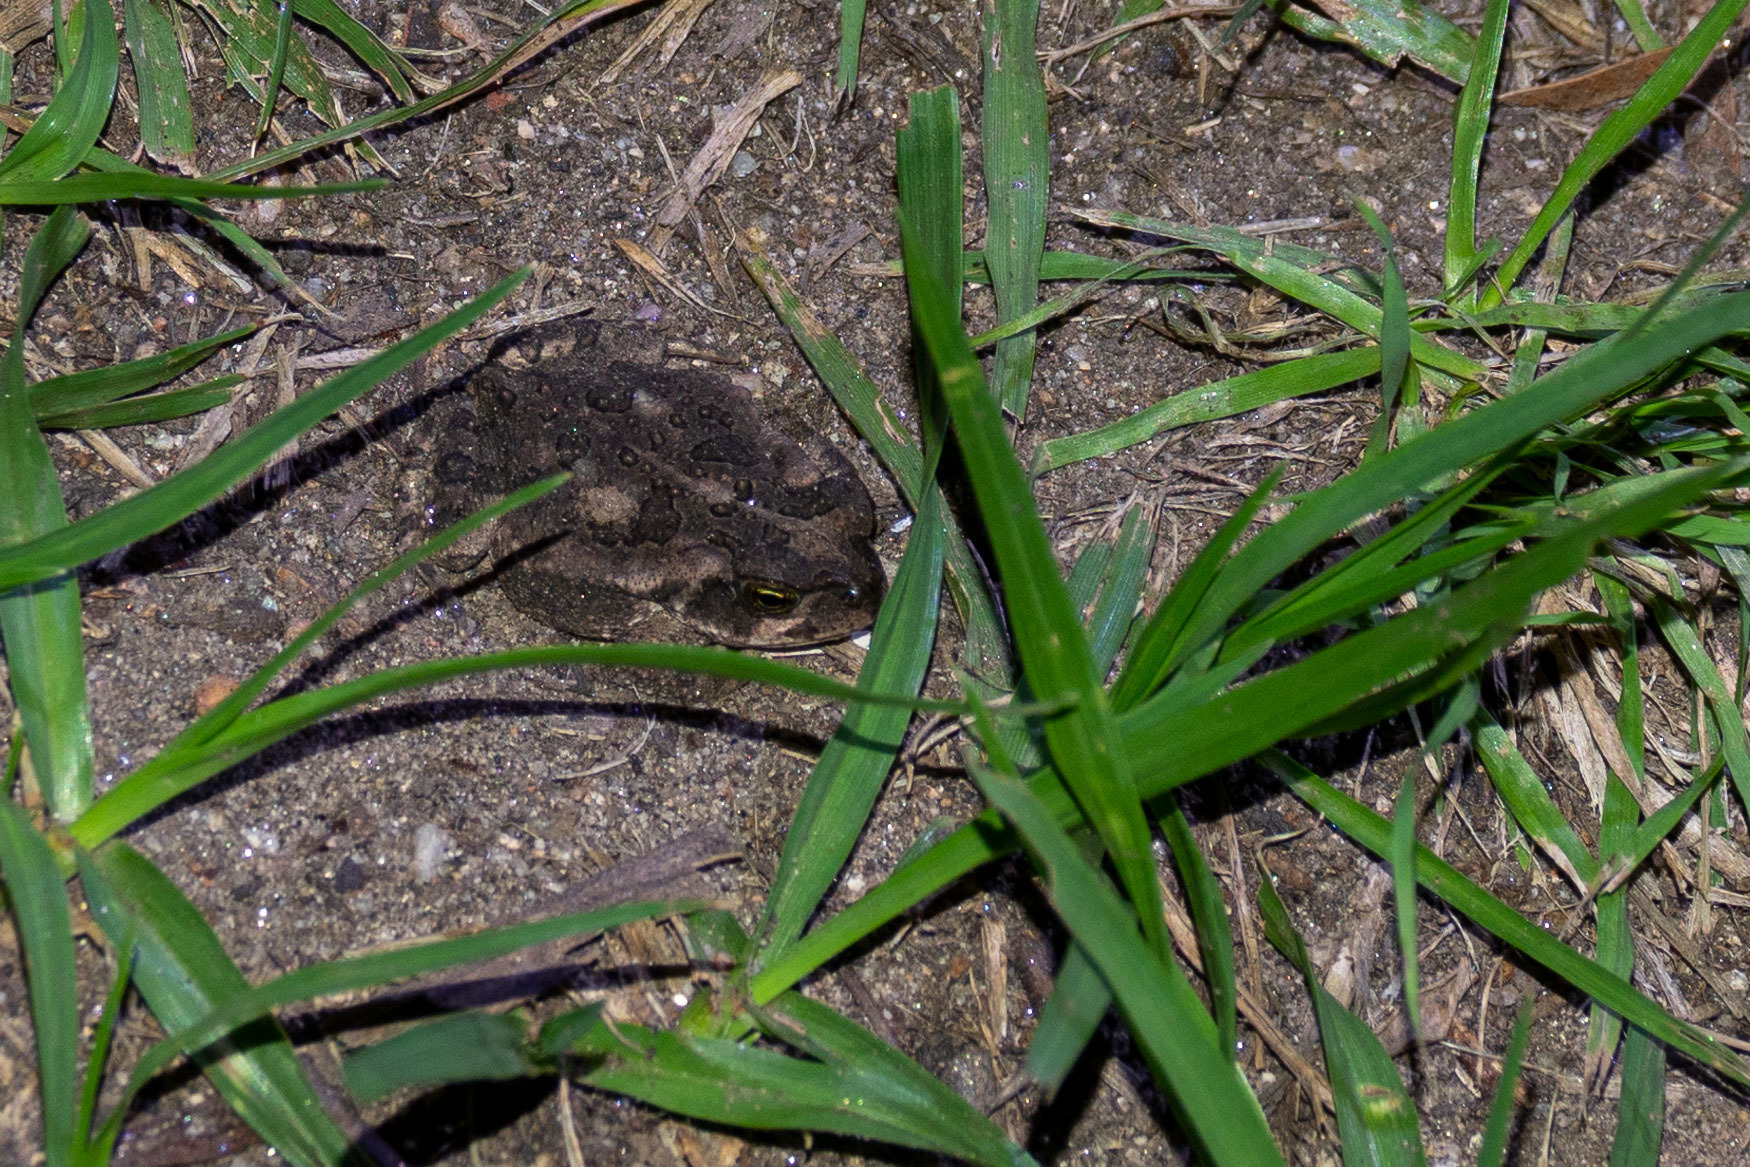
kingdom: Animalia
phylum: Chordata
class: Amphibia
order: Anura
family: Bufonidae
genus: Rhinella
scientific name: Rhinella arenarum
